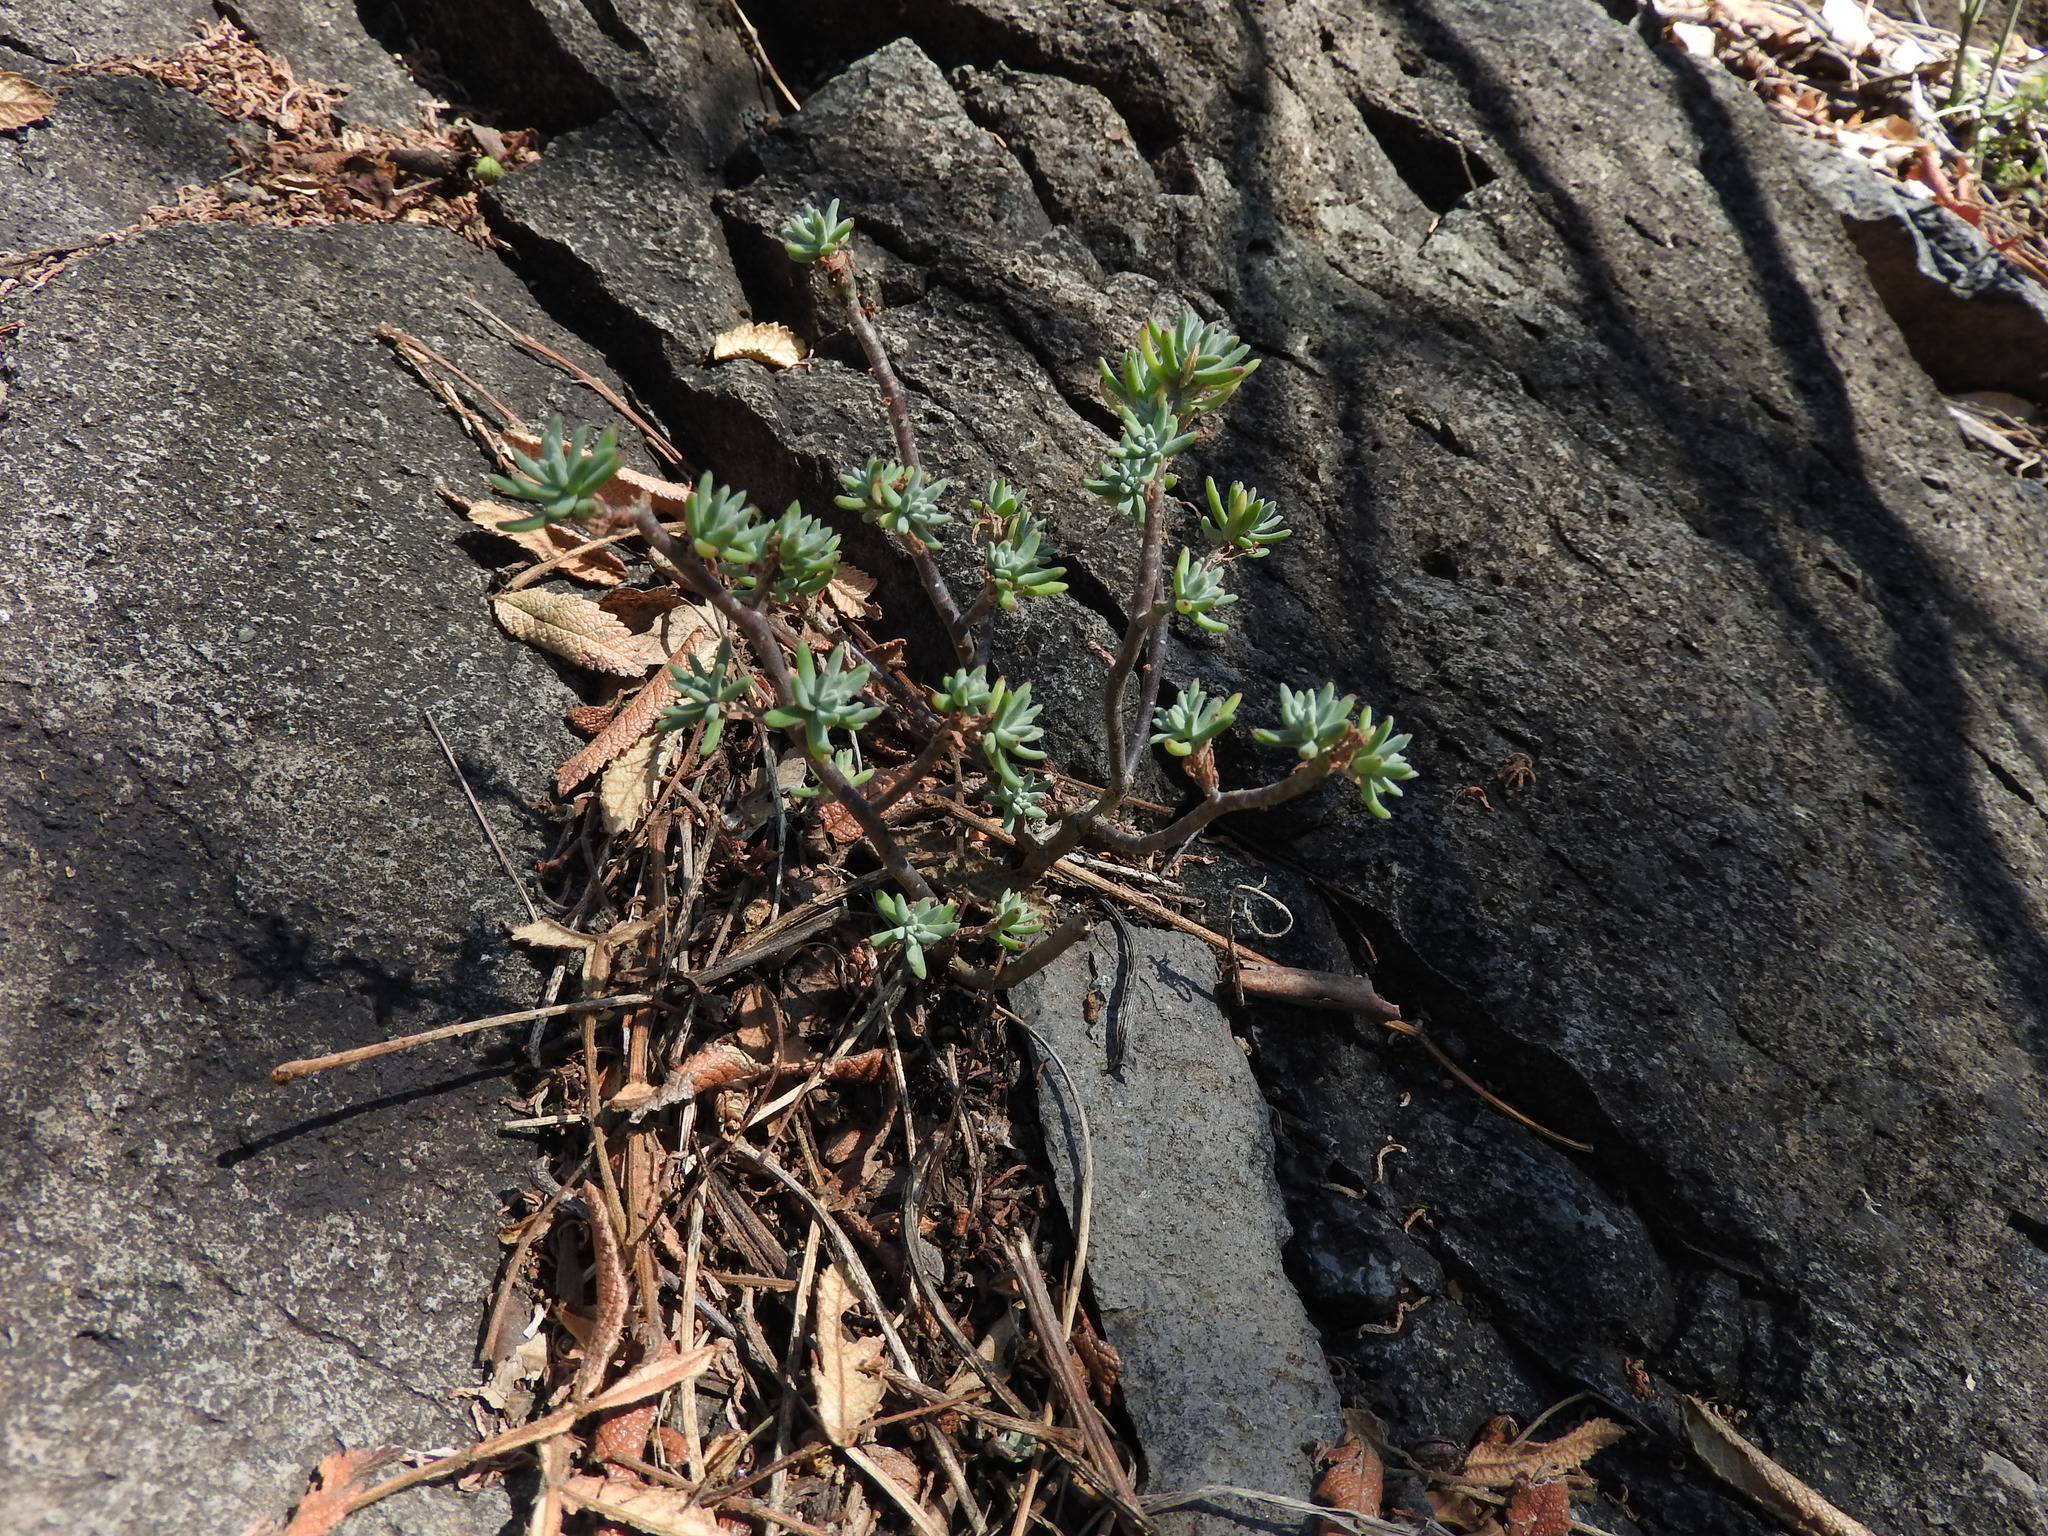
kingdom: Plantae
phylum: Tracheophyta
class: Magnoliopsida
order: Saxifragales
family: Crassulaceae
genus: Sedum
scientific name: Sedum griseum
